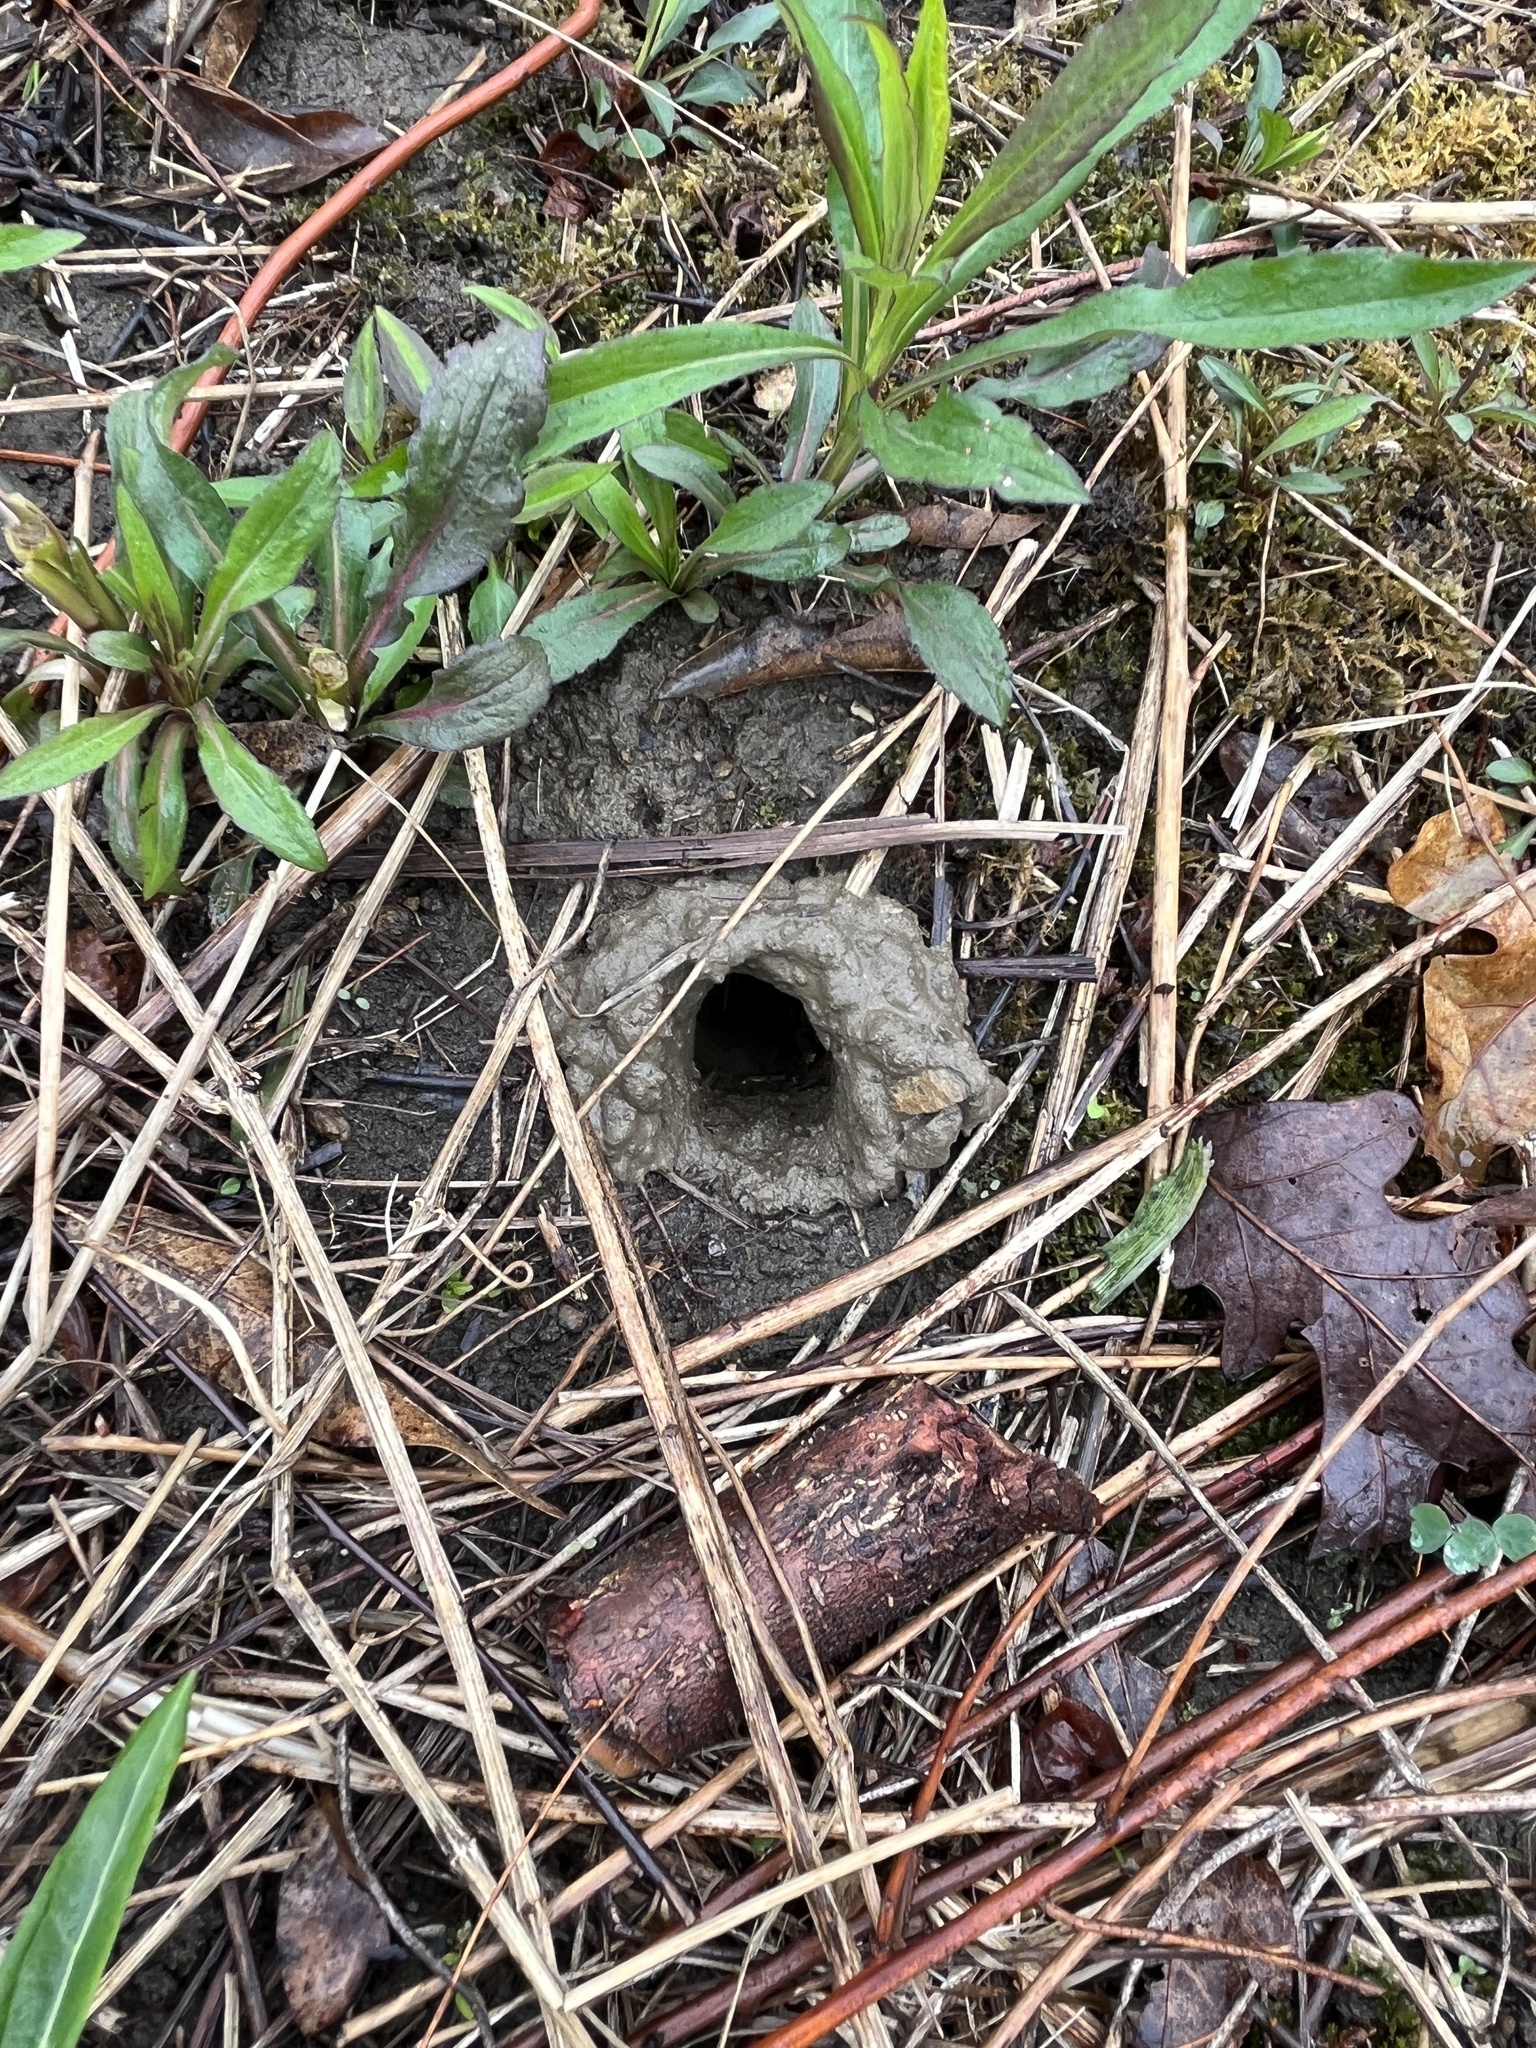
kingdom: Animalia
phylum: Arthropoda
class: Malacostraca
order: Decapoda
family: Cambaridae
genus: Lacunicambarus
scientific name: Lacunicambarus thomai
